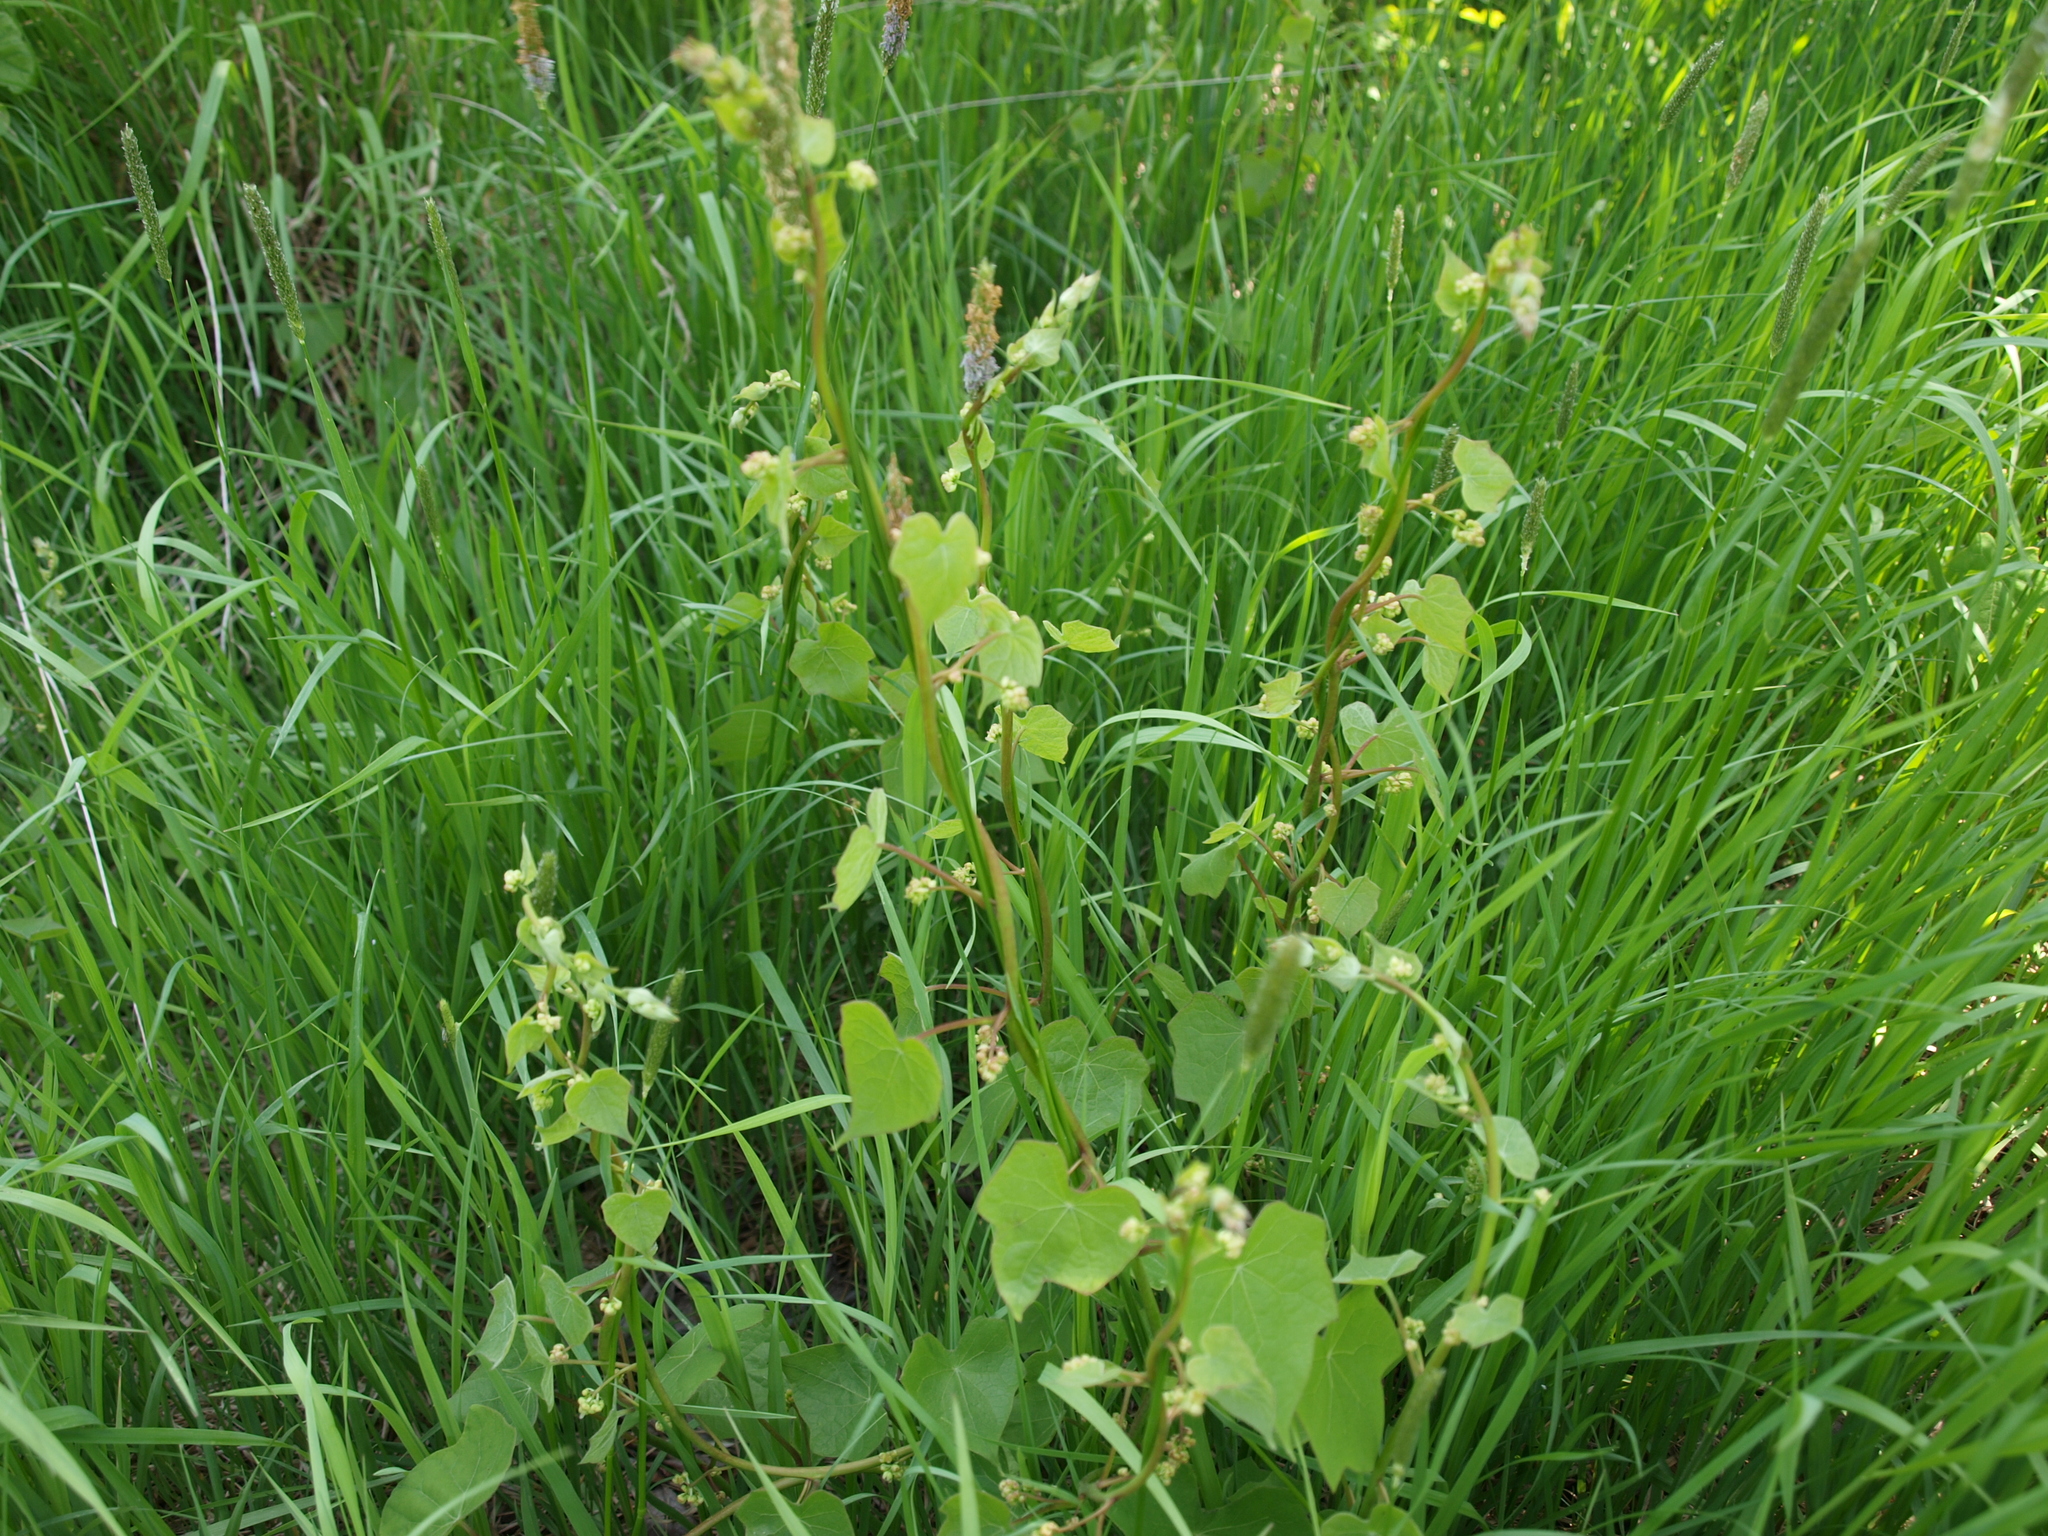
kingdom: Plantae
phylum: Tracheophyta
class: Magnoliopsida
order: Ranunculales
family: Menispermaceae
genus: Menispermum
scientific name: Menispermum dauricum
